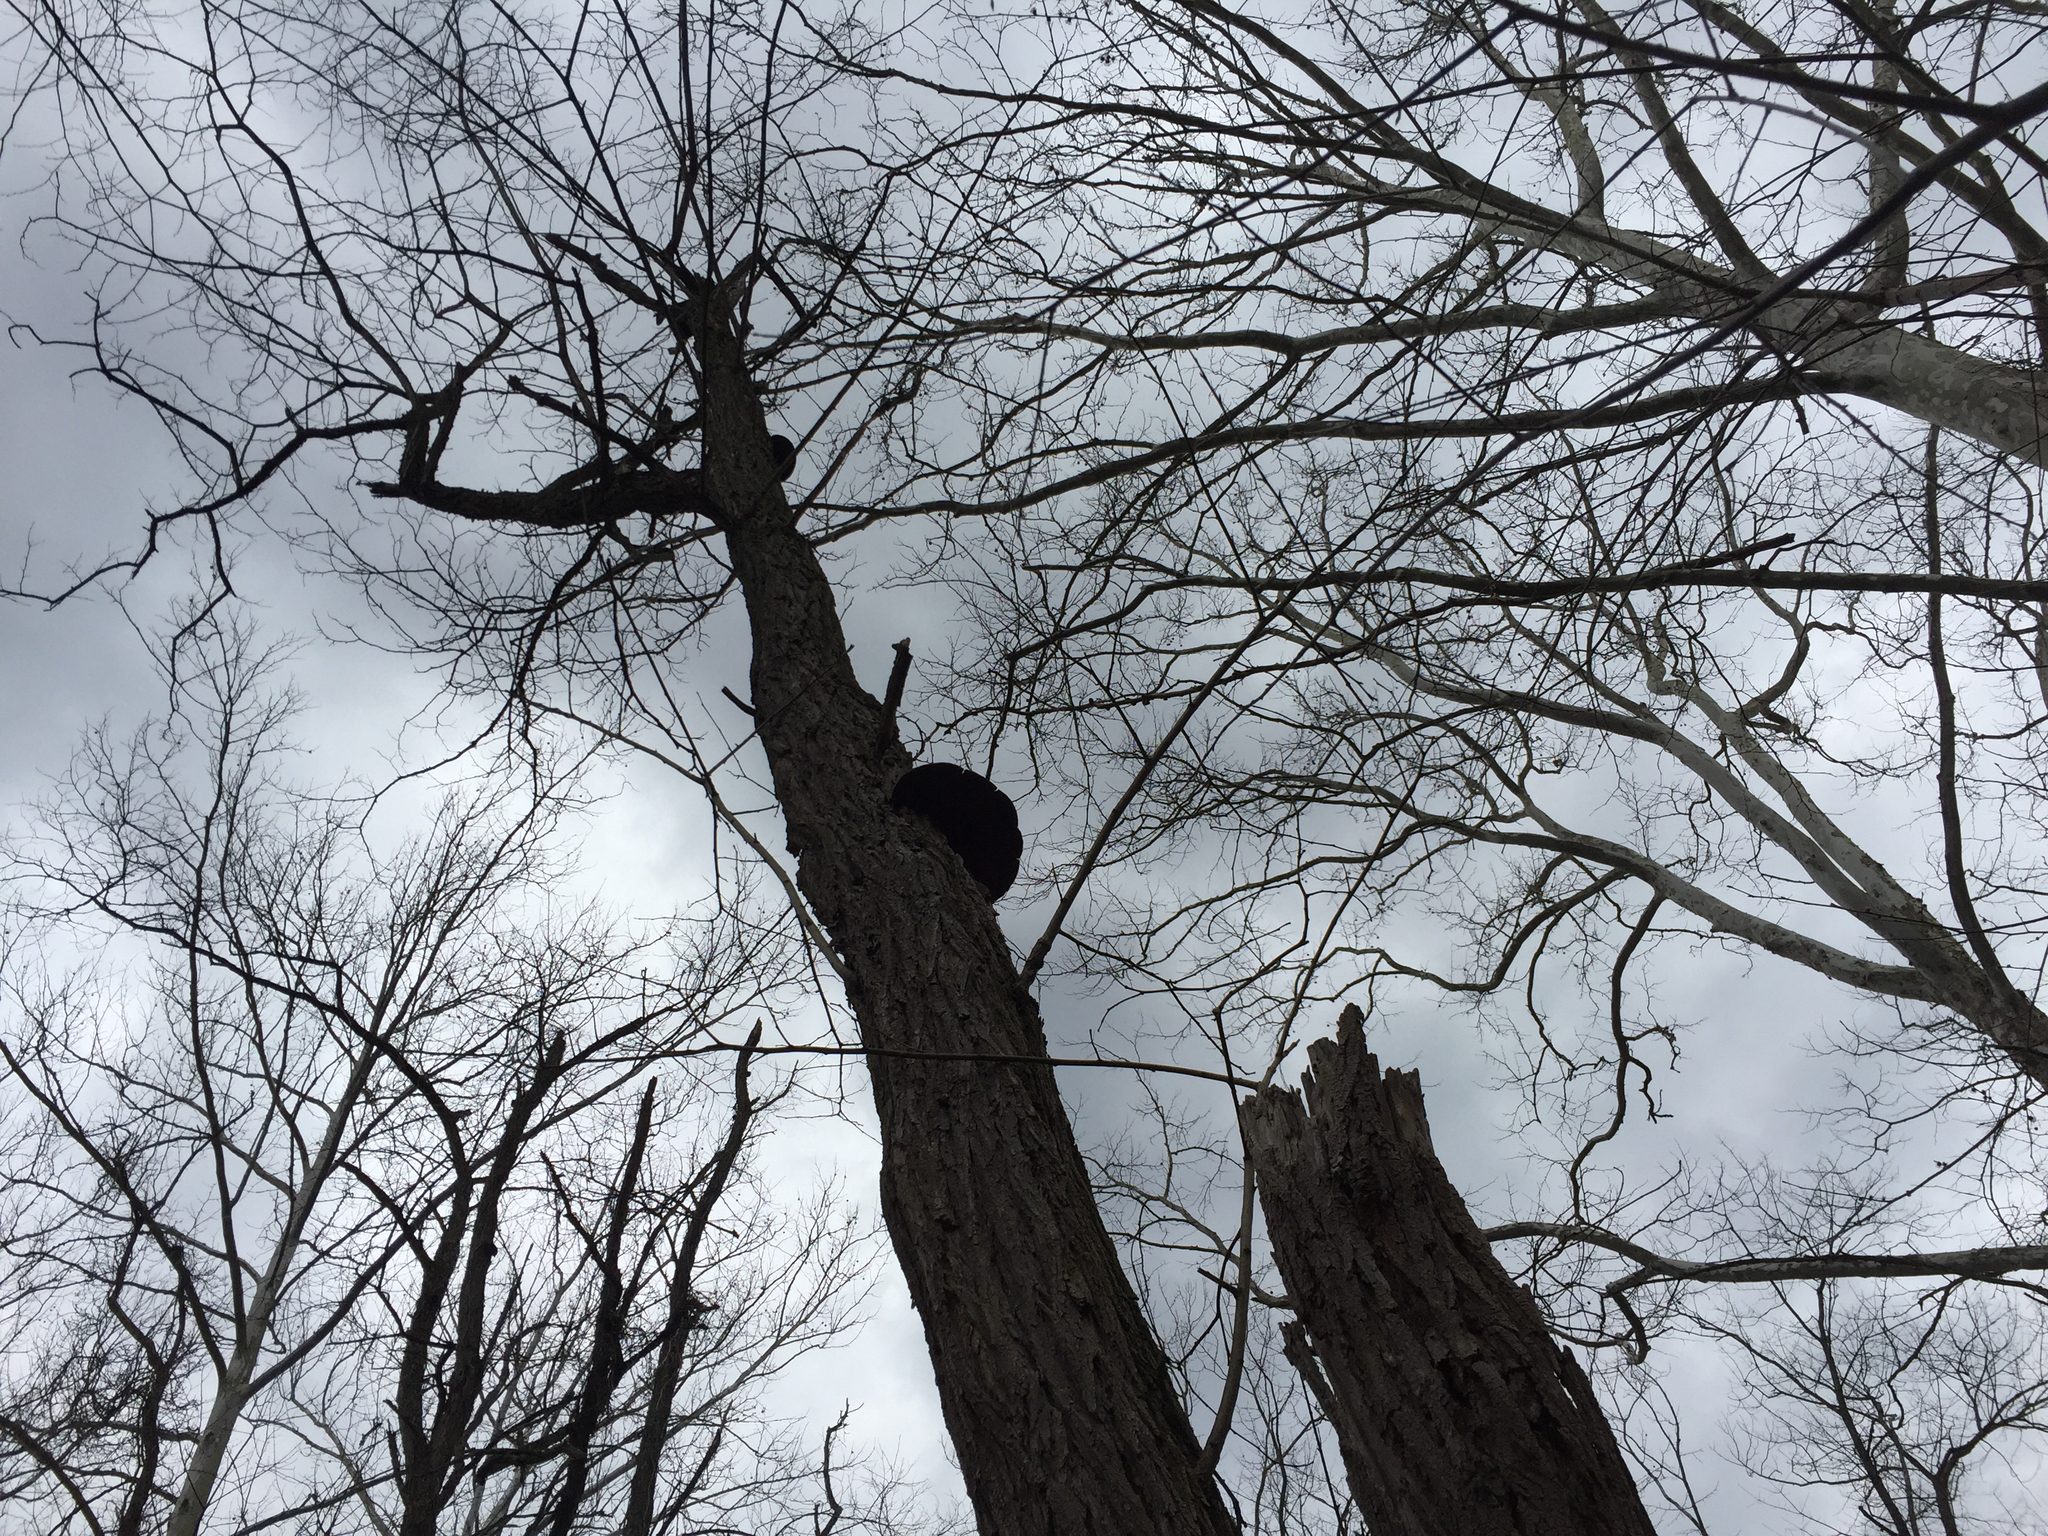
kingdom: Fungi
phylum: Basidiomycota
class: Agaricomycetes
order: Hymenochaetales
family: Hymenochaetaceae
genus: Phellinus
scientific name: Phellinus robiniae
